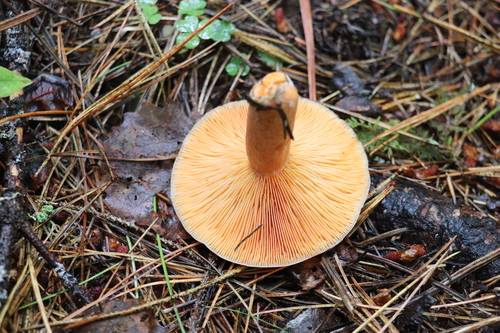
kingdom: Fungi
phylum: Basidiomycota
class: Agaricomycetes
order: Russulales
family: Russulaceae
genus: Lactarius
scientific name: Lactarius deterrimus
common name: False saffron milkcap
